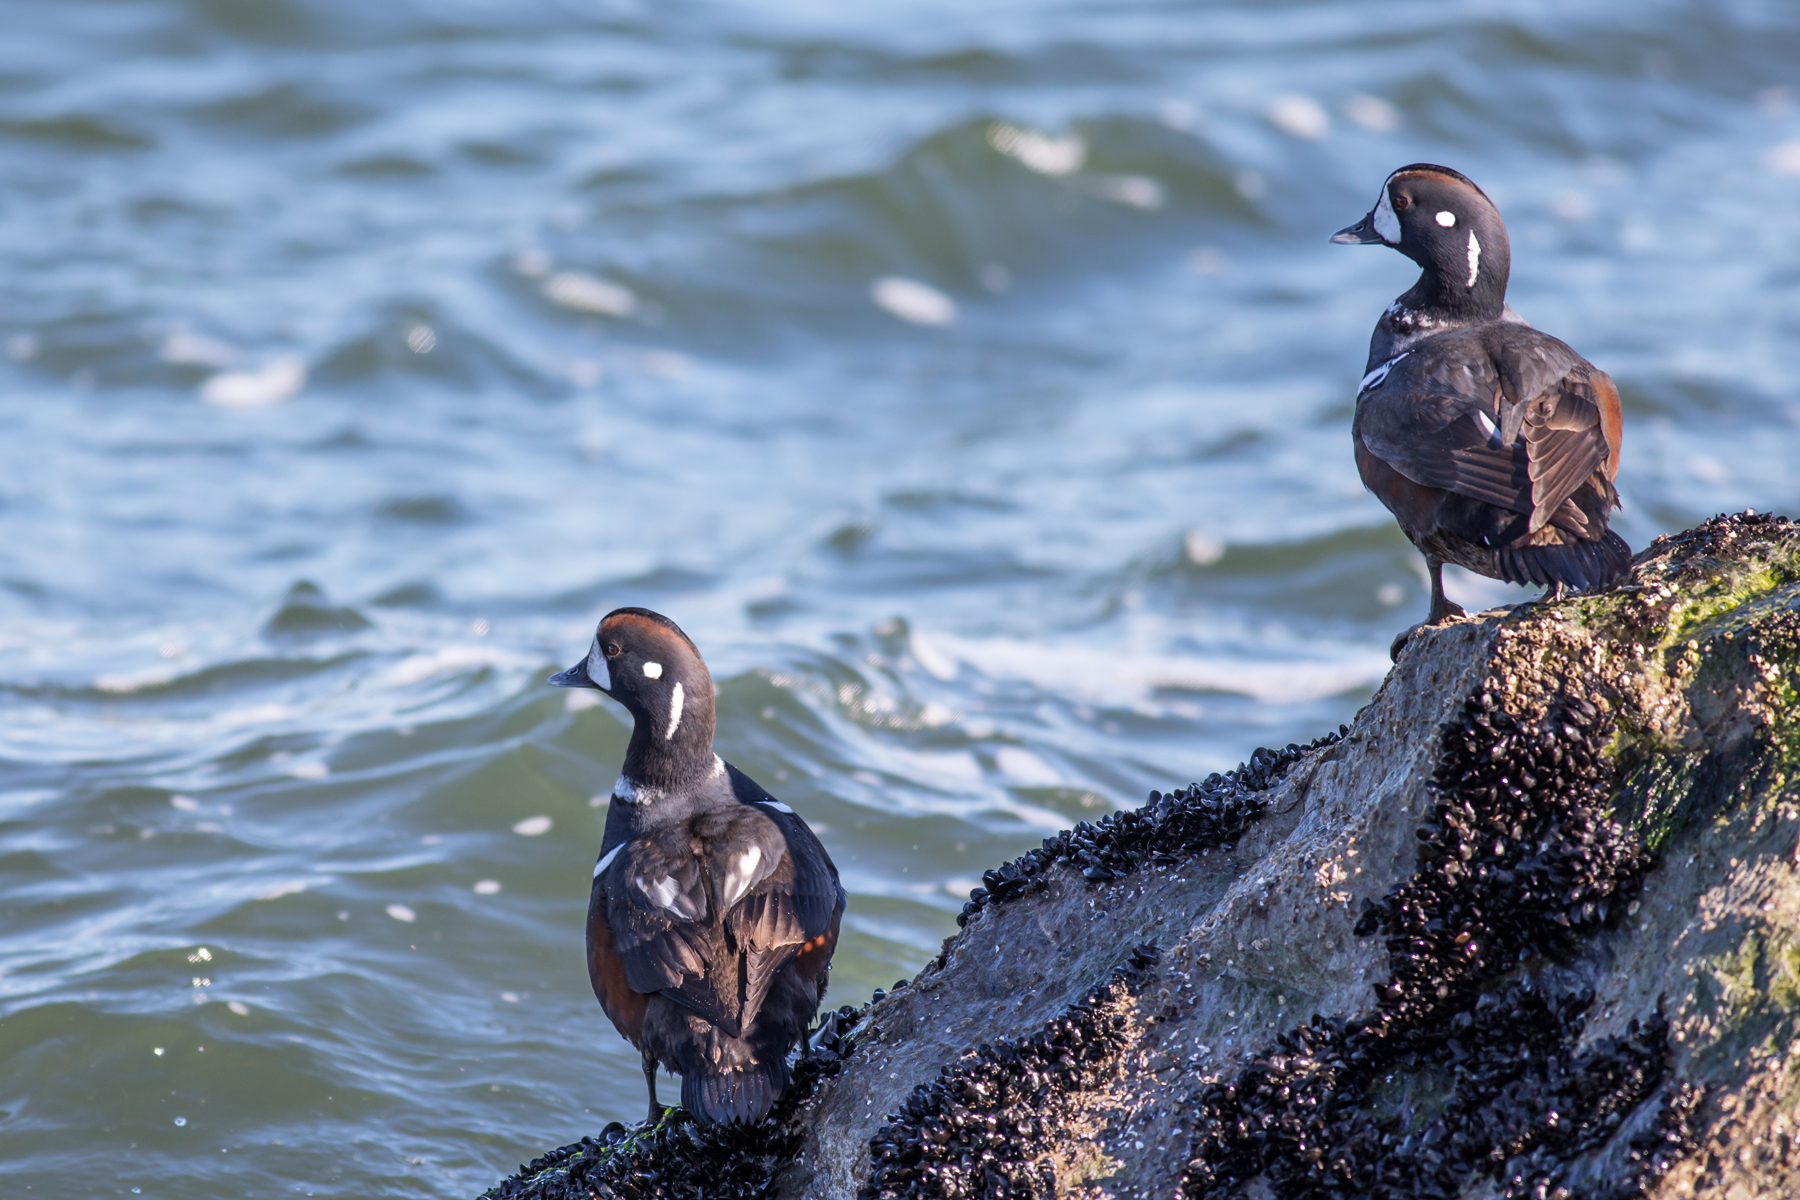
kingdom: Animalia
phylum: Chordata
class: Aves
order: Anseriformes
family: Anatidae
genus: Histrionicus
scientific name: Histrionicus histrionicus
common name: Harlequin duck
